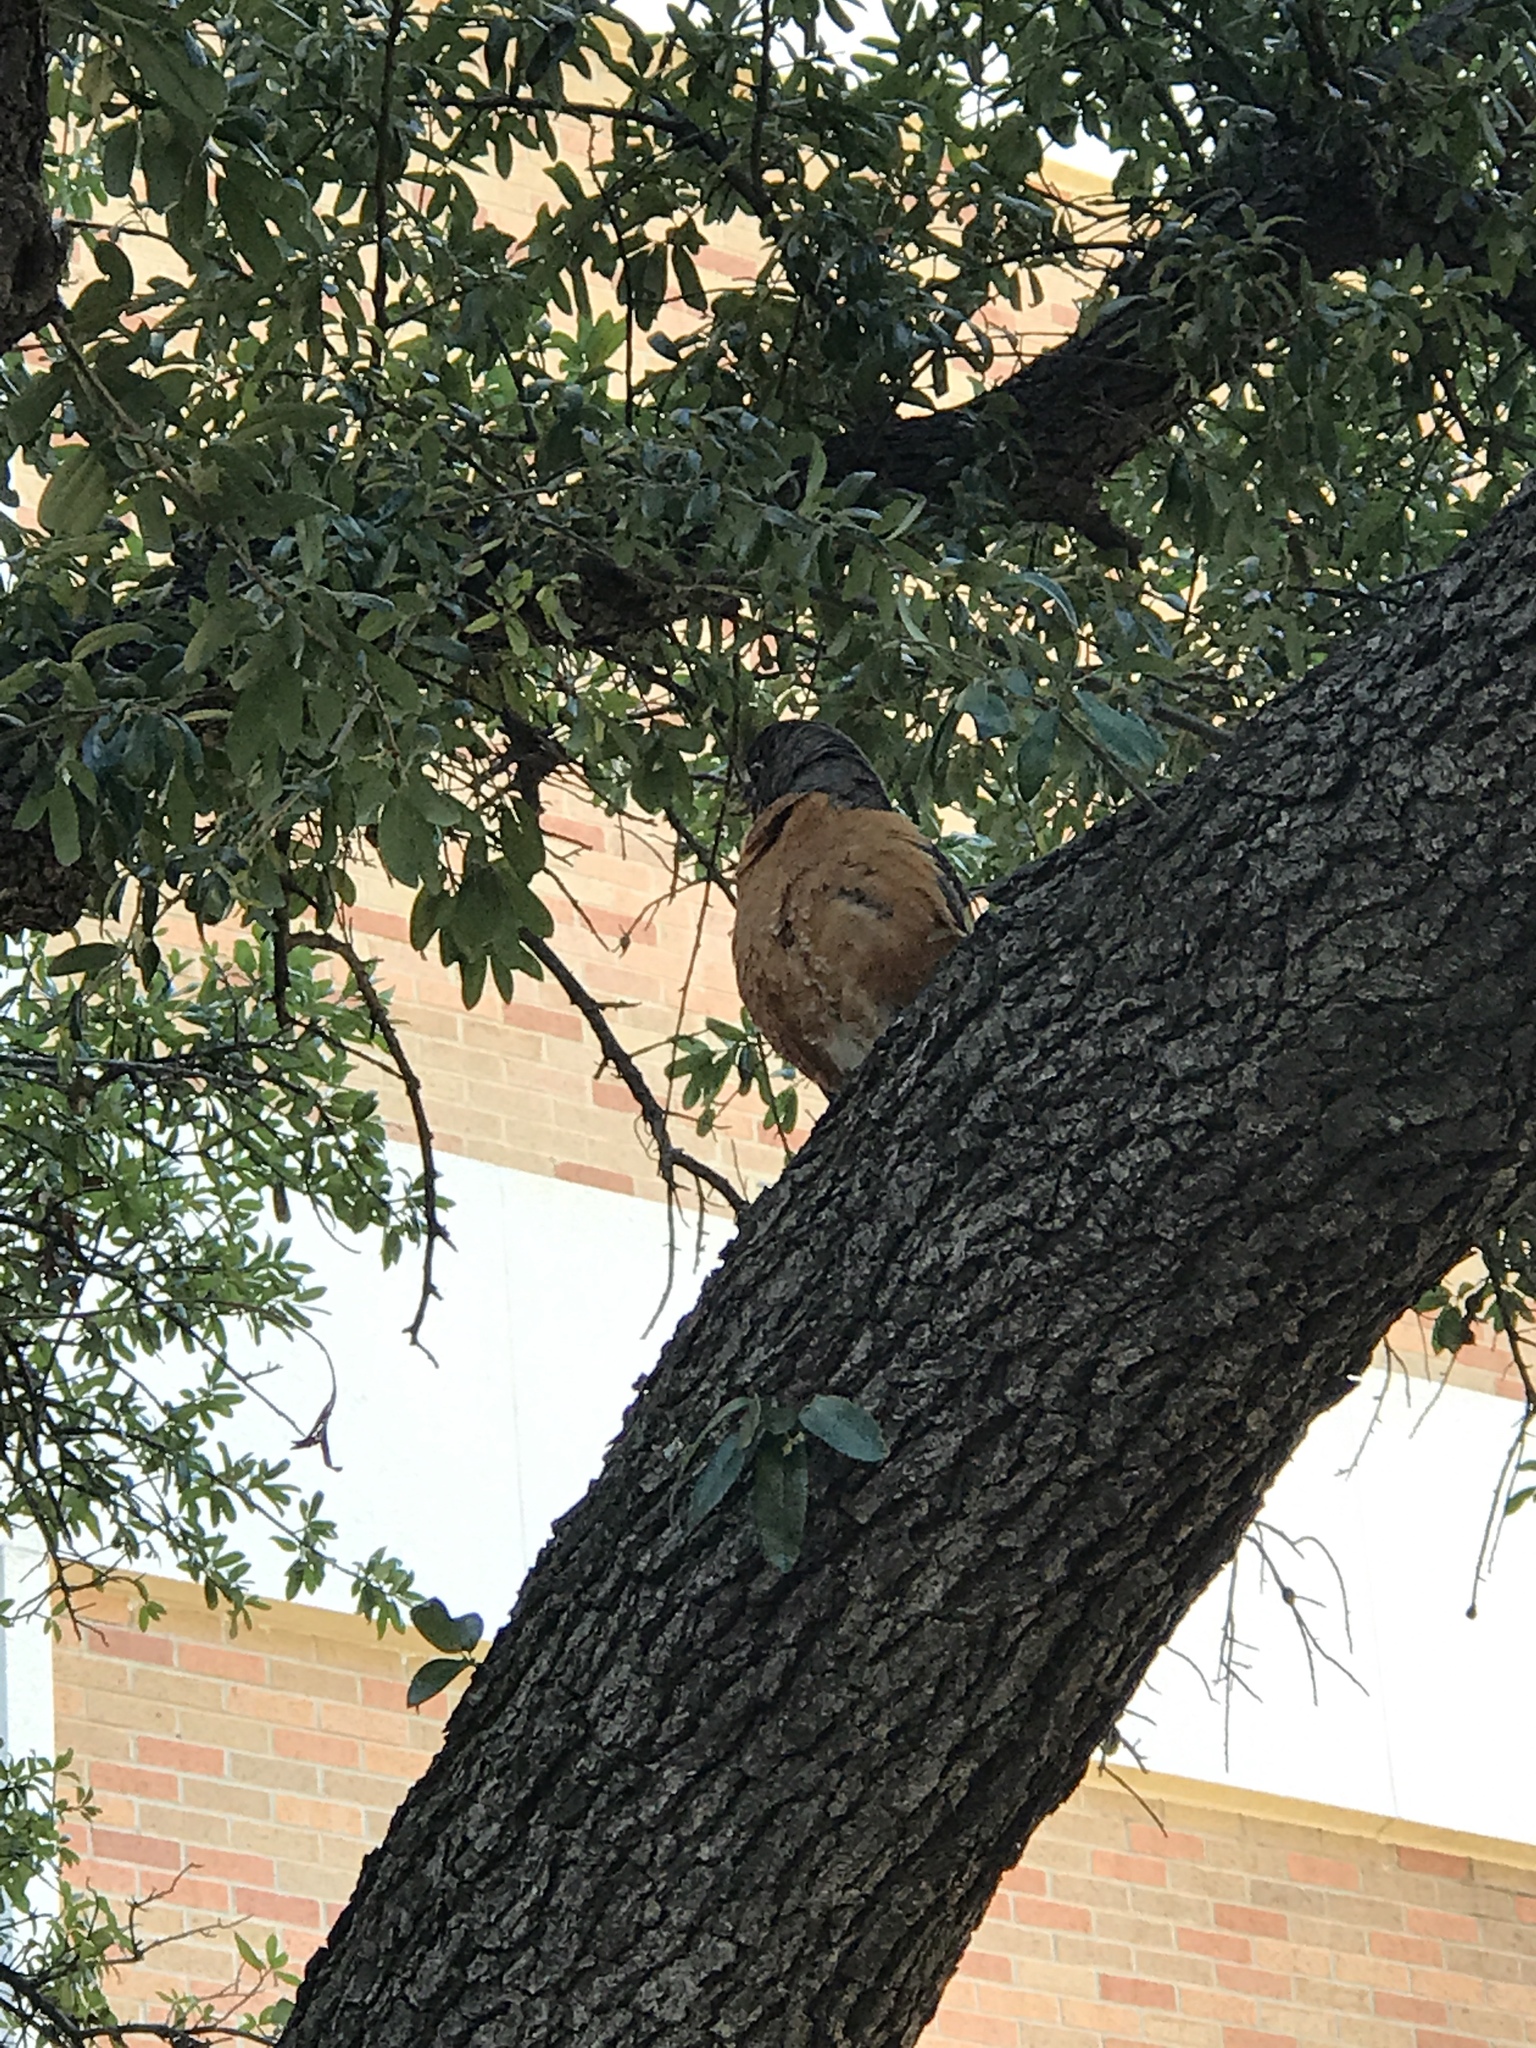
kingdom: Animalia
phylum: Chordata
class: Aves
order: Passeriformes
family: Turdidae
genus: Turdus
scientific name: Turdus migratorius
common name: American robin
